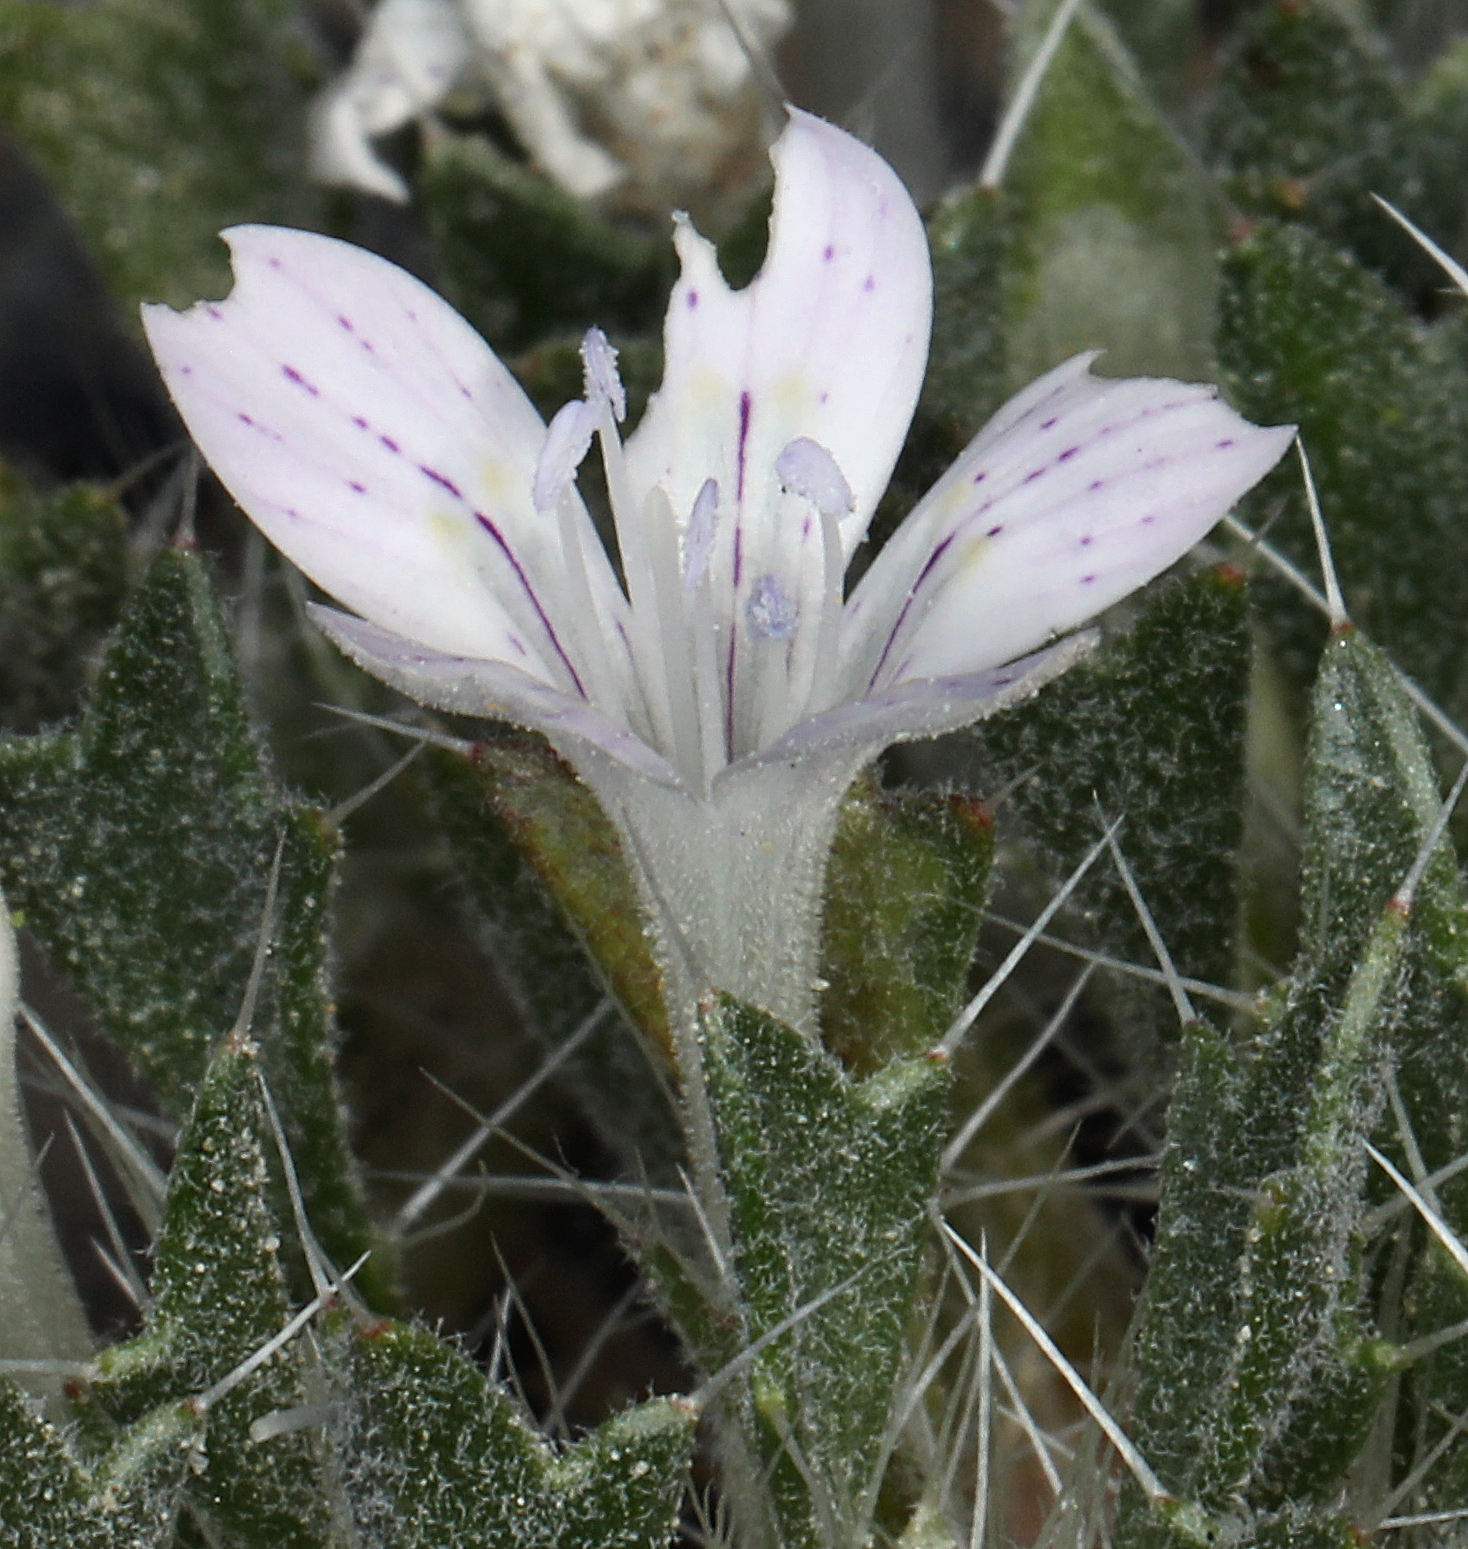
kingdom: Plantae
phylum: Tracheophyta
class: Magnoliopsida
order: Ericales
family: Polemoniaceae
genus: Langloisia
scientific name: Langloisia setosissima
